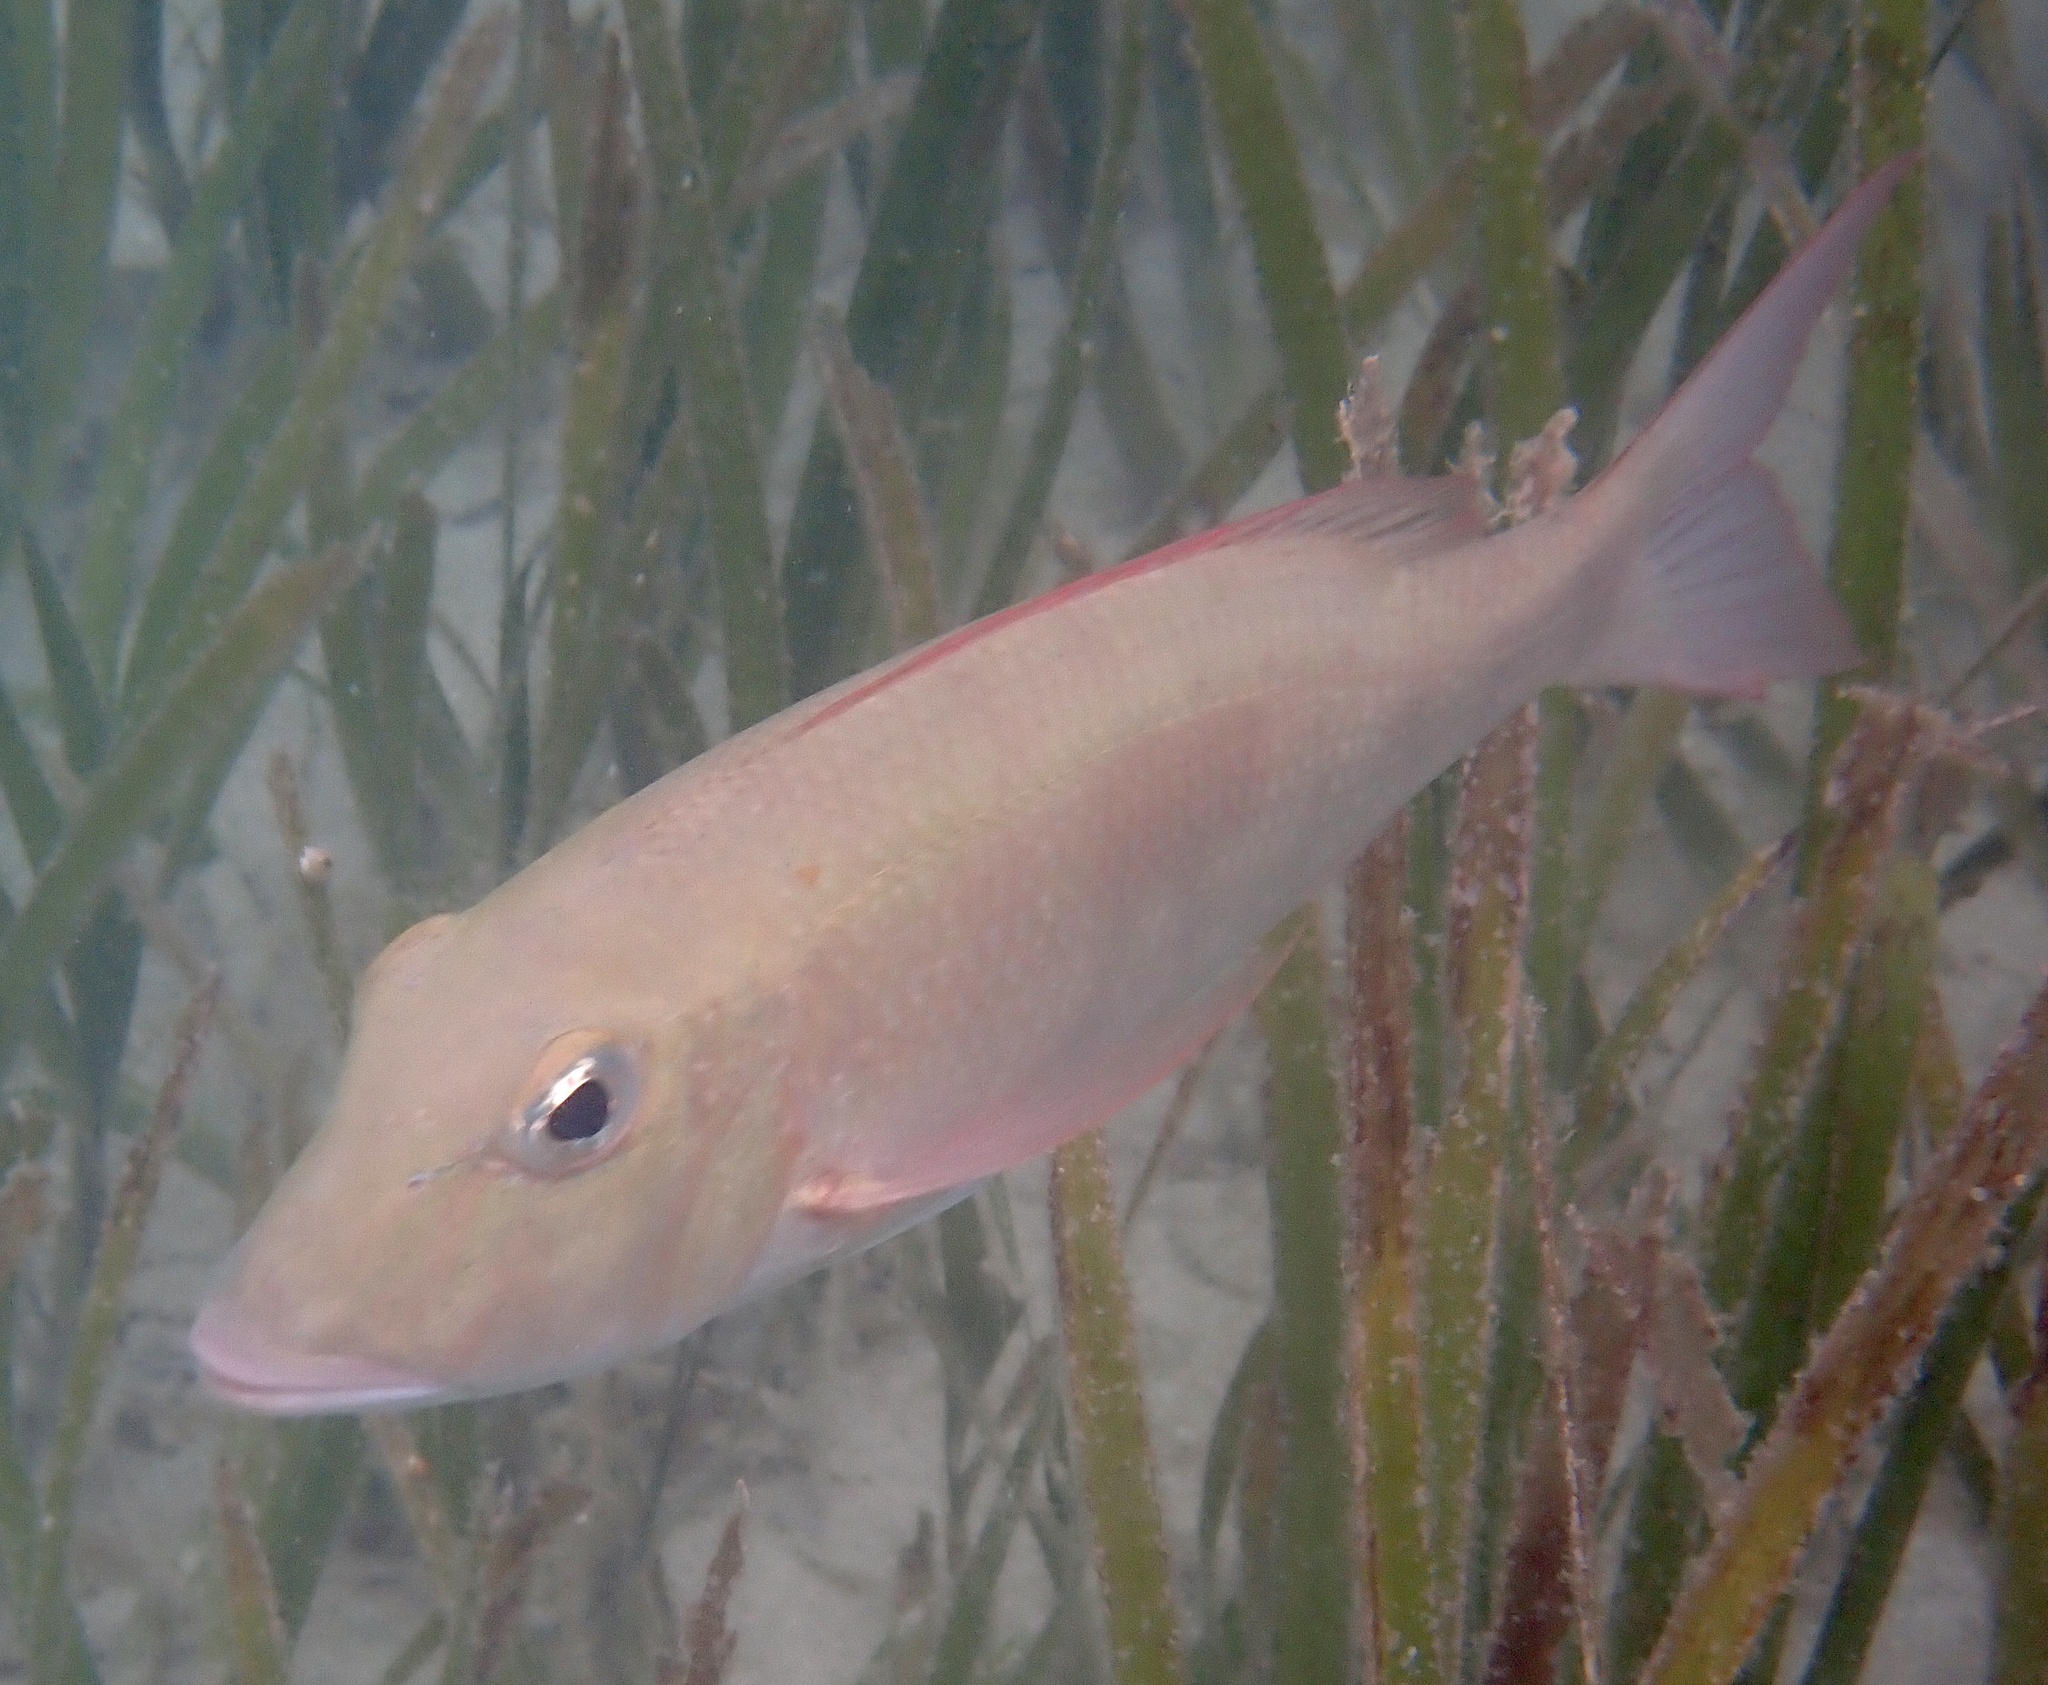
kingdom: Animalia
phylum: Chordata
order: Perciformes
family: Lethrinidae
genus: Lethrinus
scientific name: Lethrinus harak
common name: Blackspot emperor
